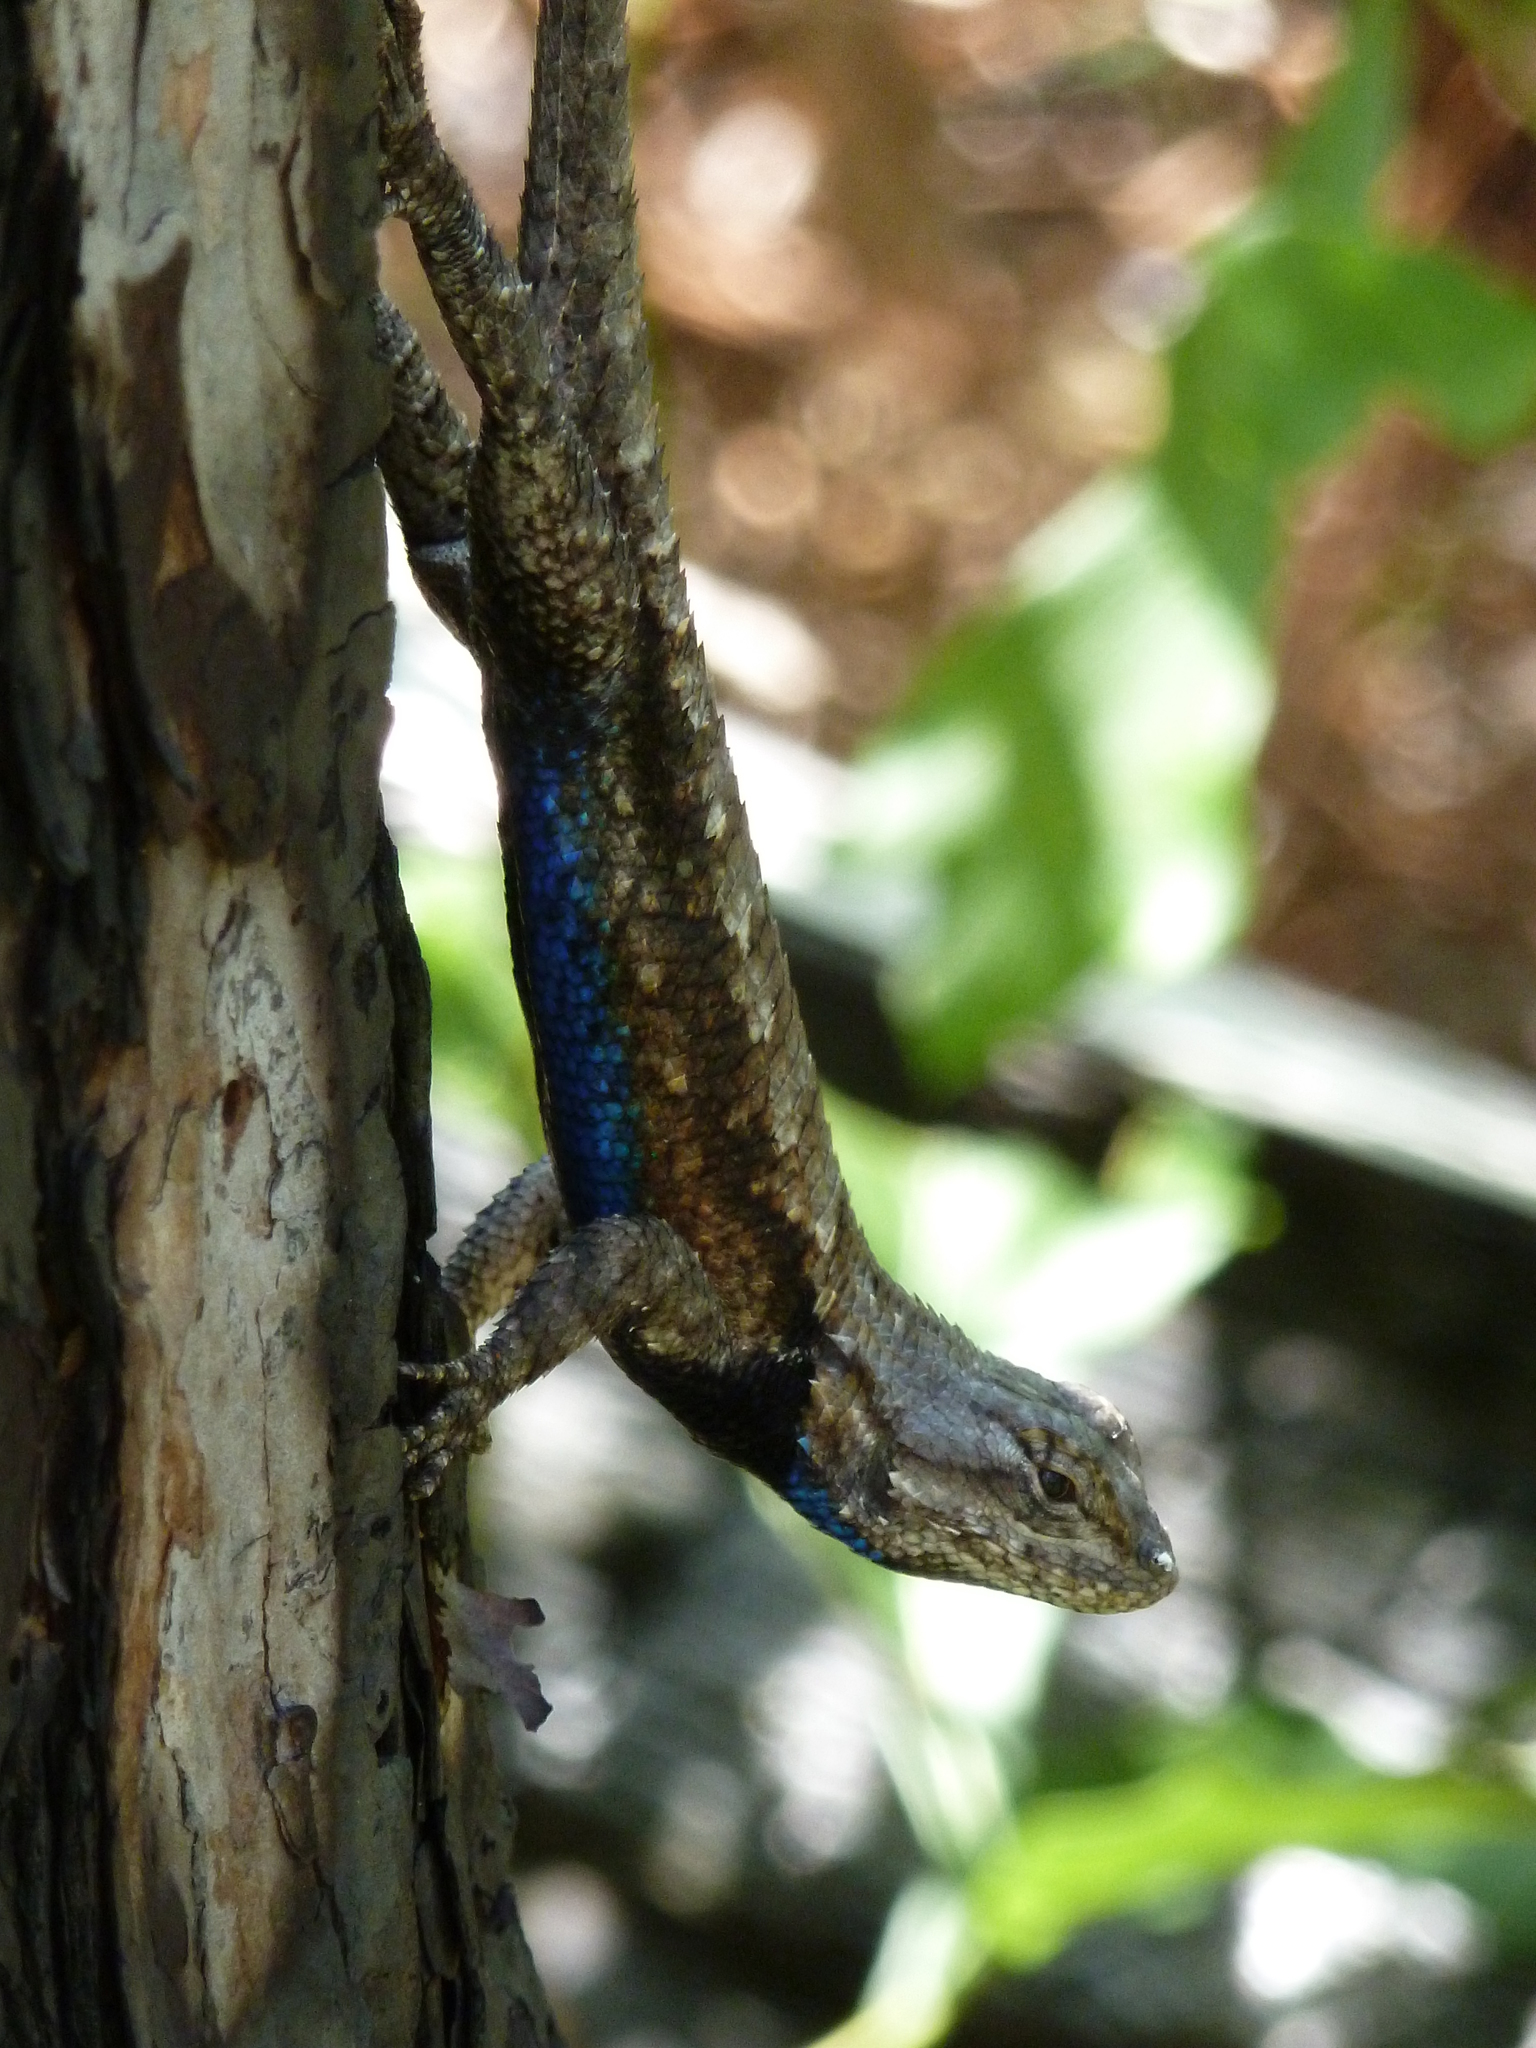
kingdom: Animalia
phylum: Chordata
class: Squamata
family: Phrynosomatidae
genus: Sceloporus
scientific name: Sceloporus undulatus
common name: Eastern fence lizard
